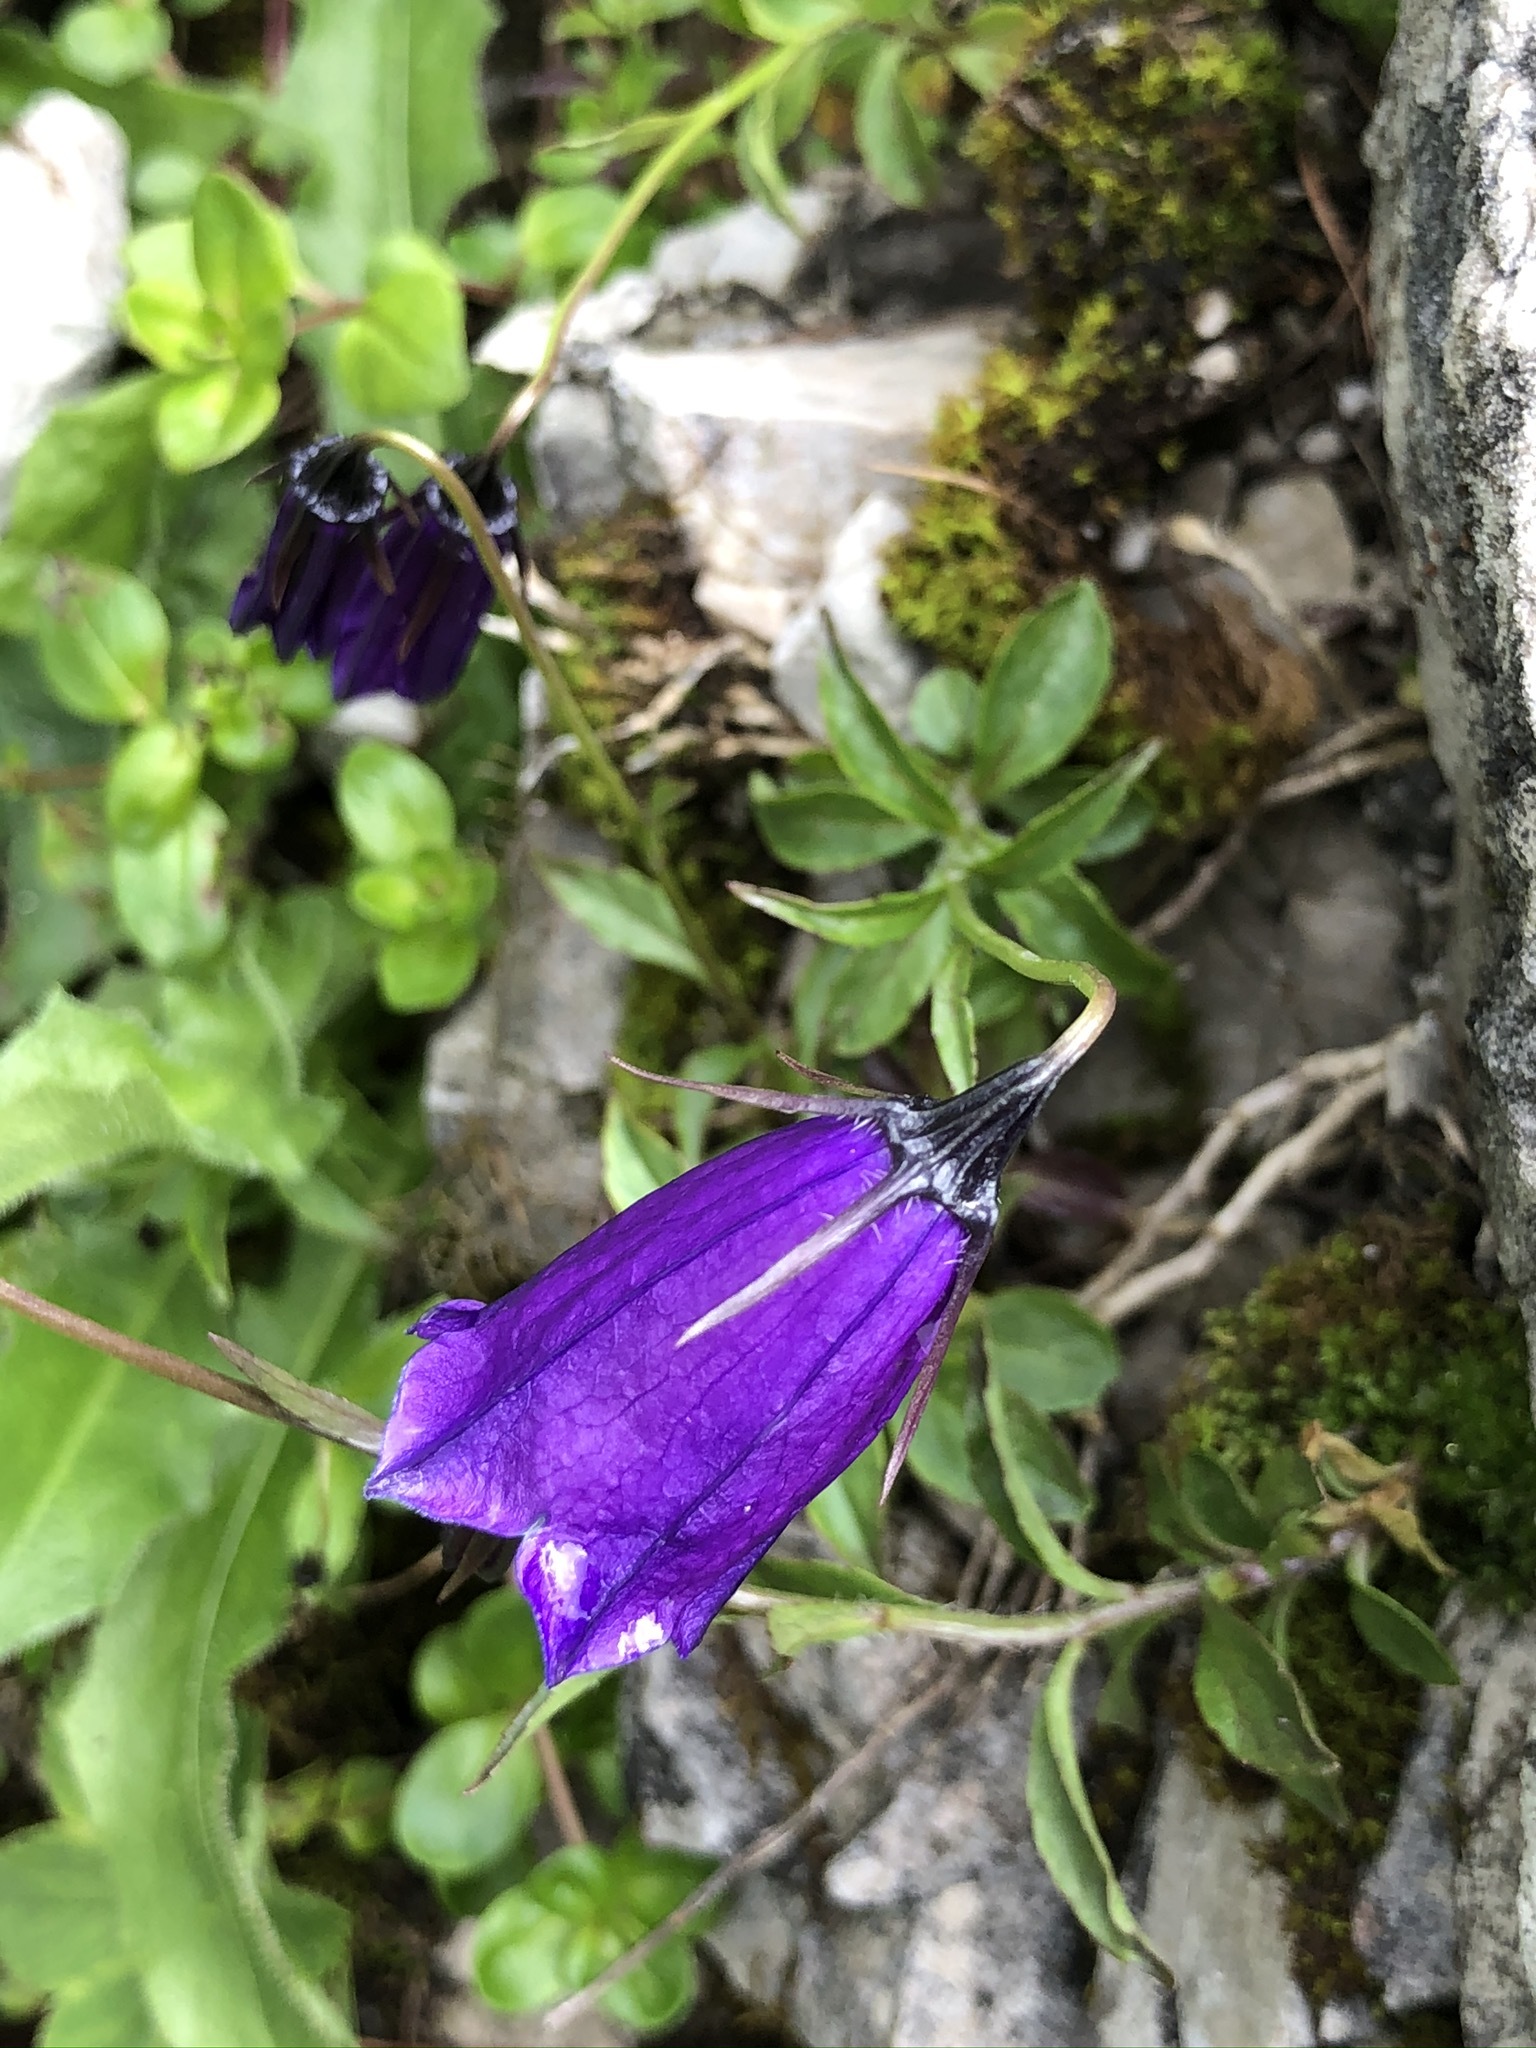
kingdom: Plantae
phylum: Tracheophyta
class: Magnoliopsida
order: Asterales
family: Campanulaceae
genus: Campanula
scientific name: Campanula pulla
